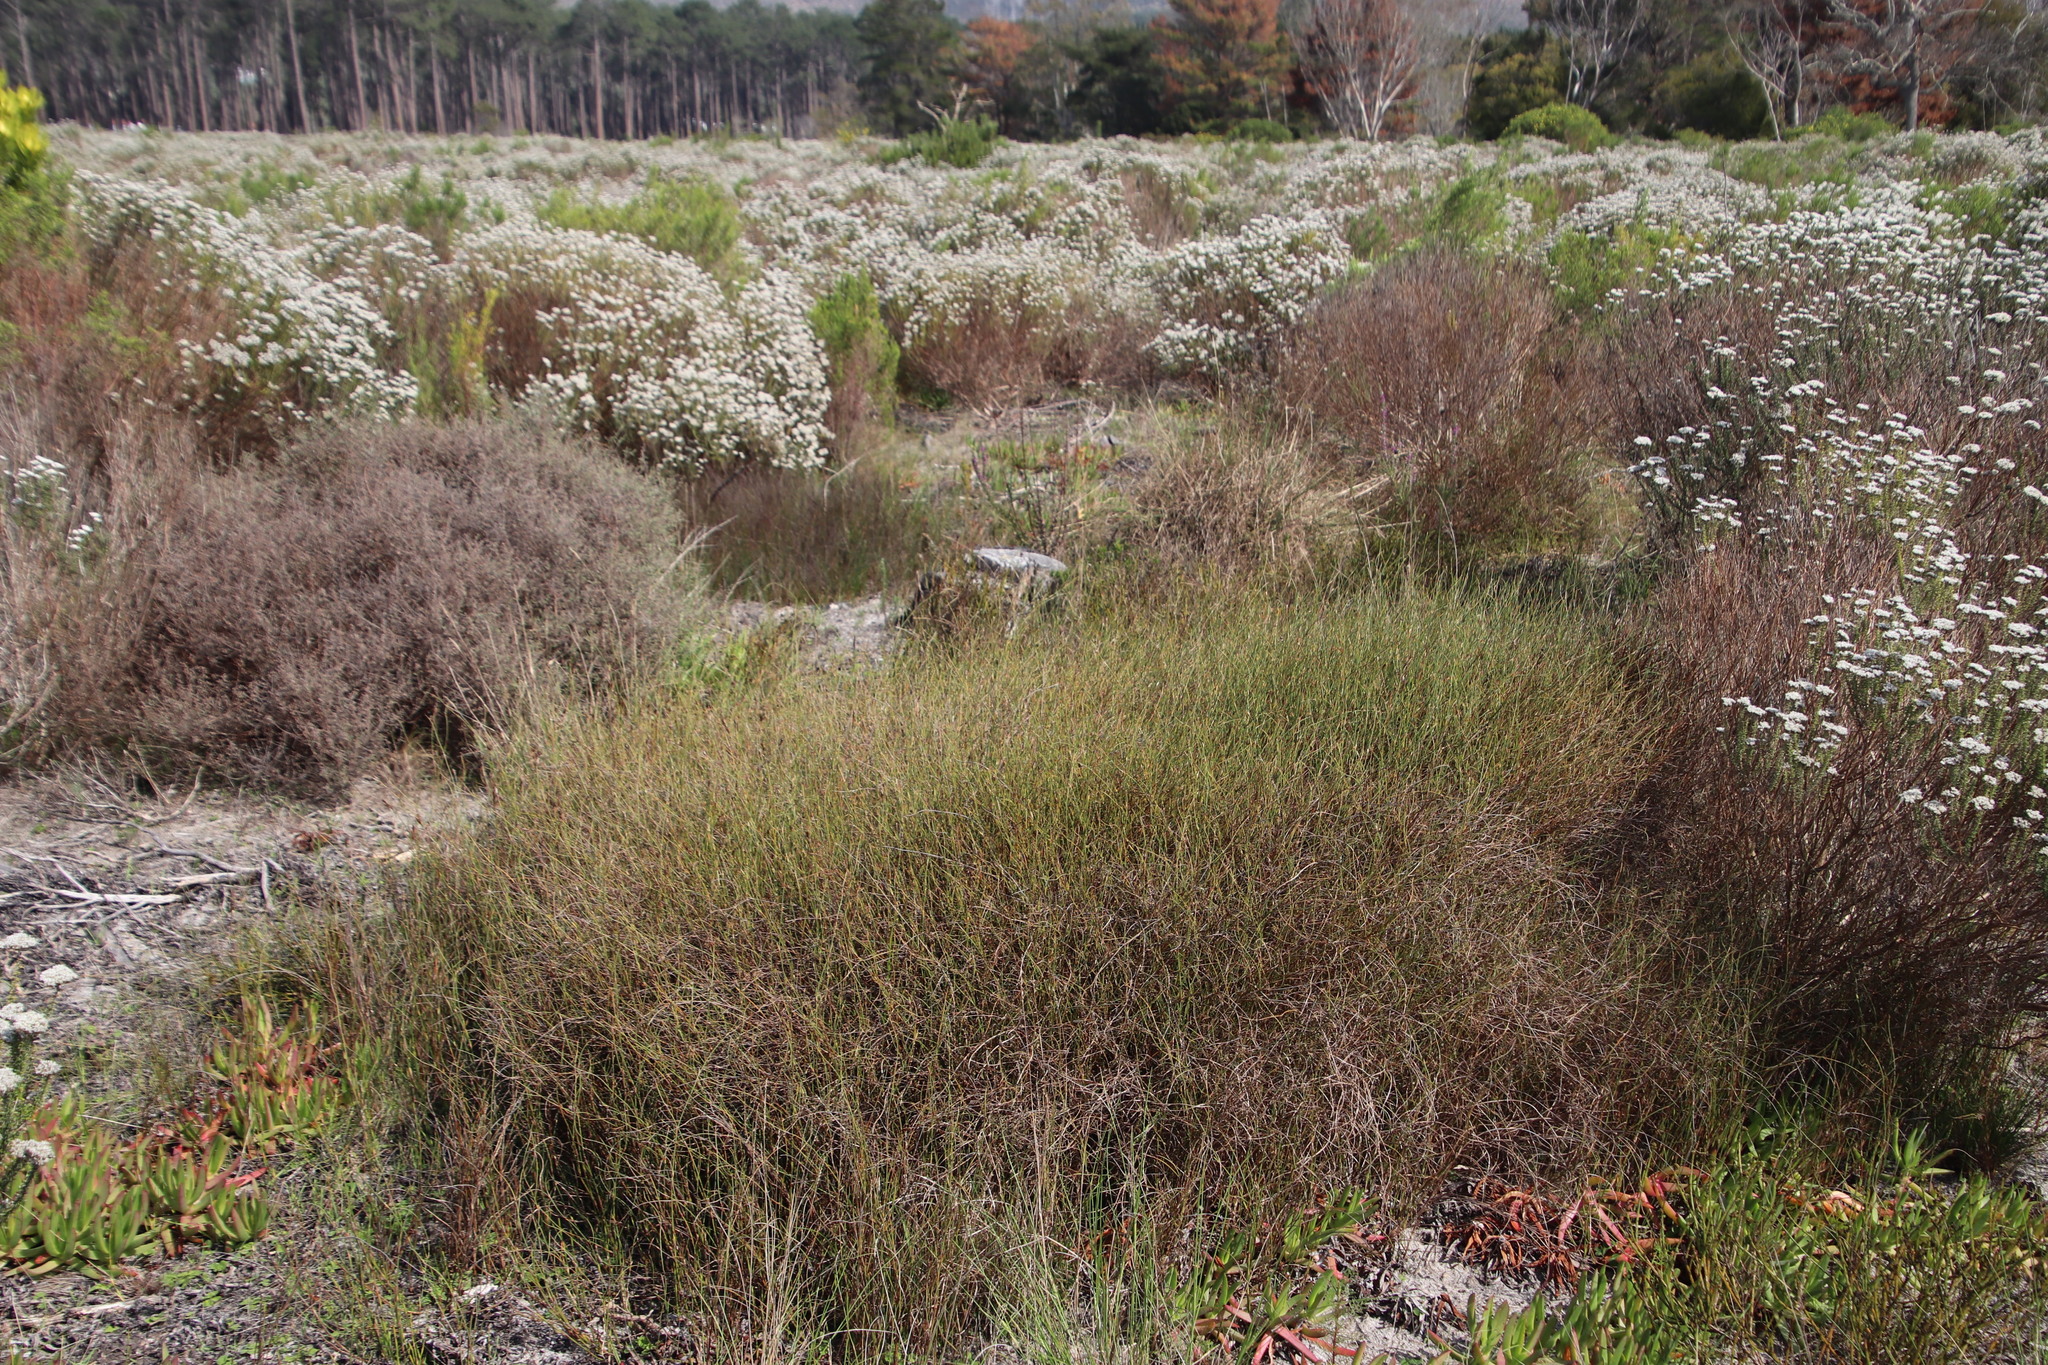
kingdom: Plantae
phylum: Tracheophyta
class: Liliopsida
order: Poales
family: Restionaceae
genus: Willdenowia
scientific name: Willdenowia sulcata
